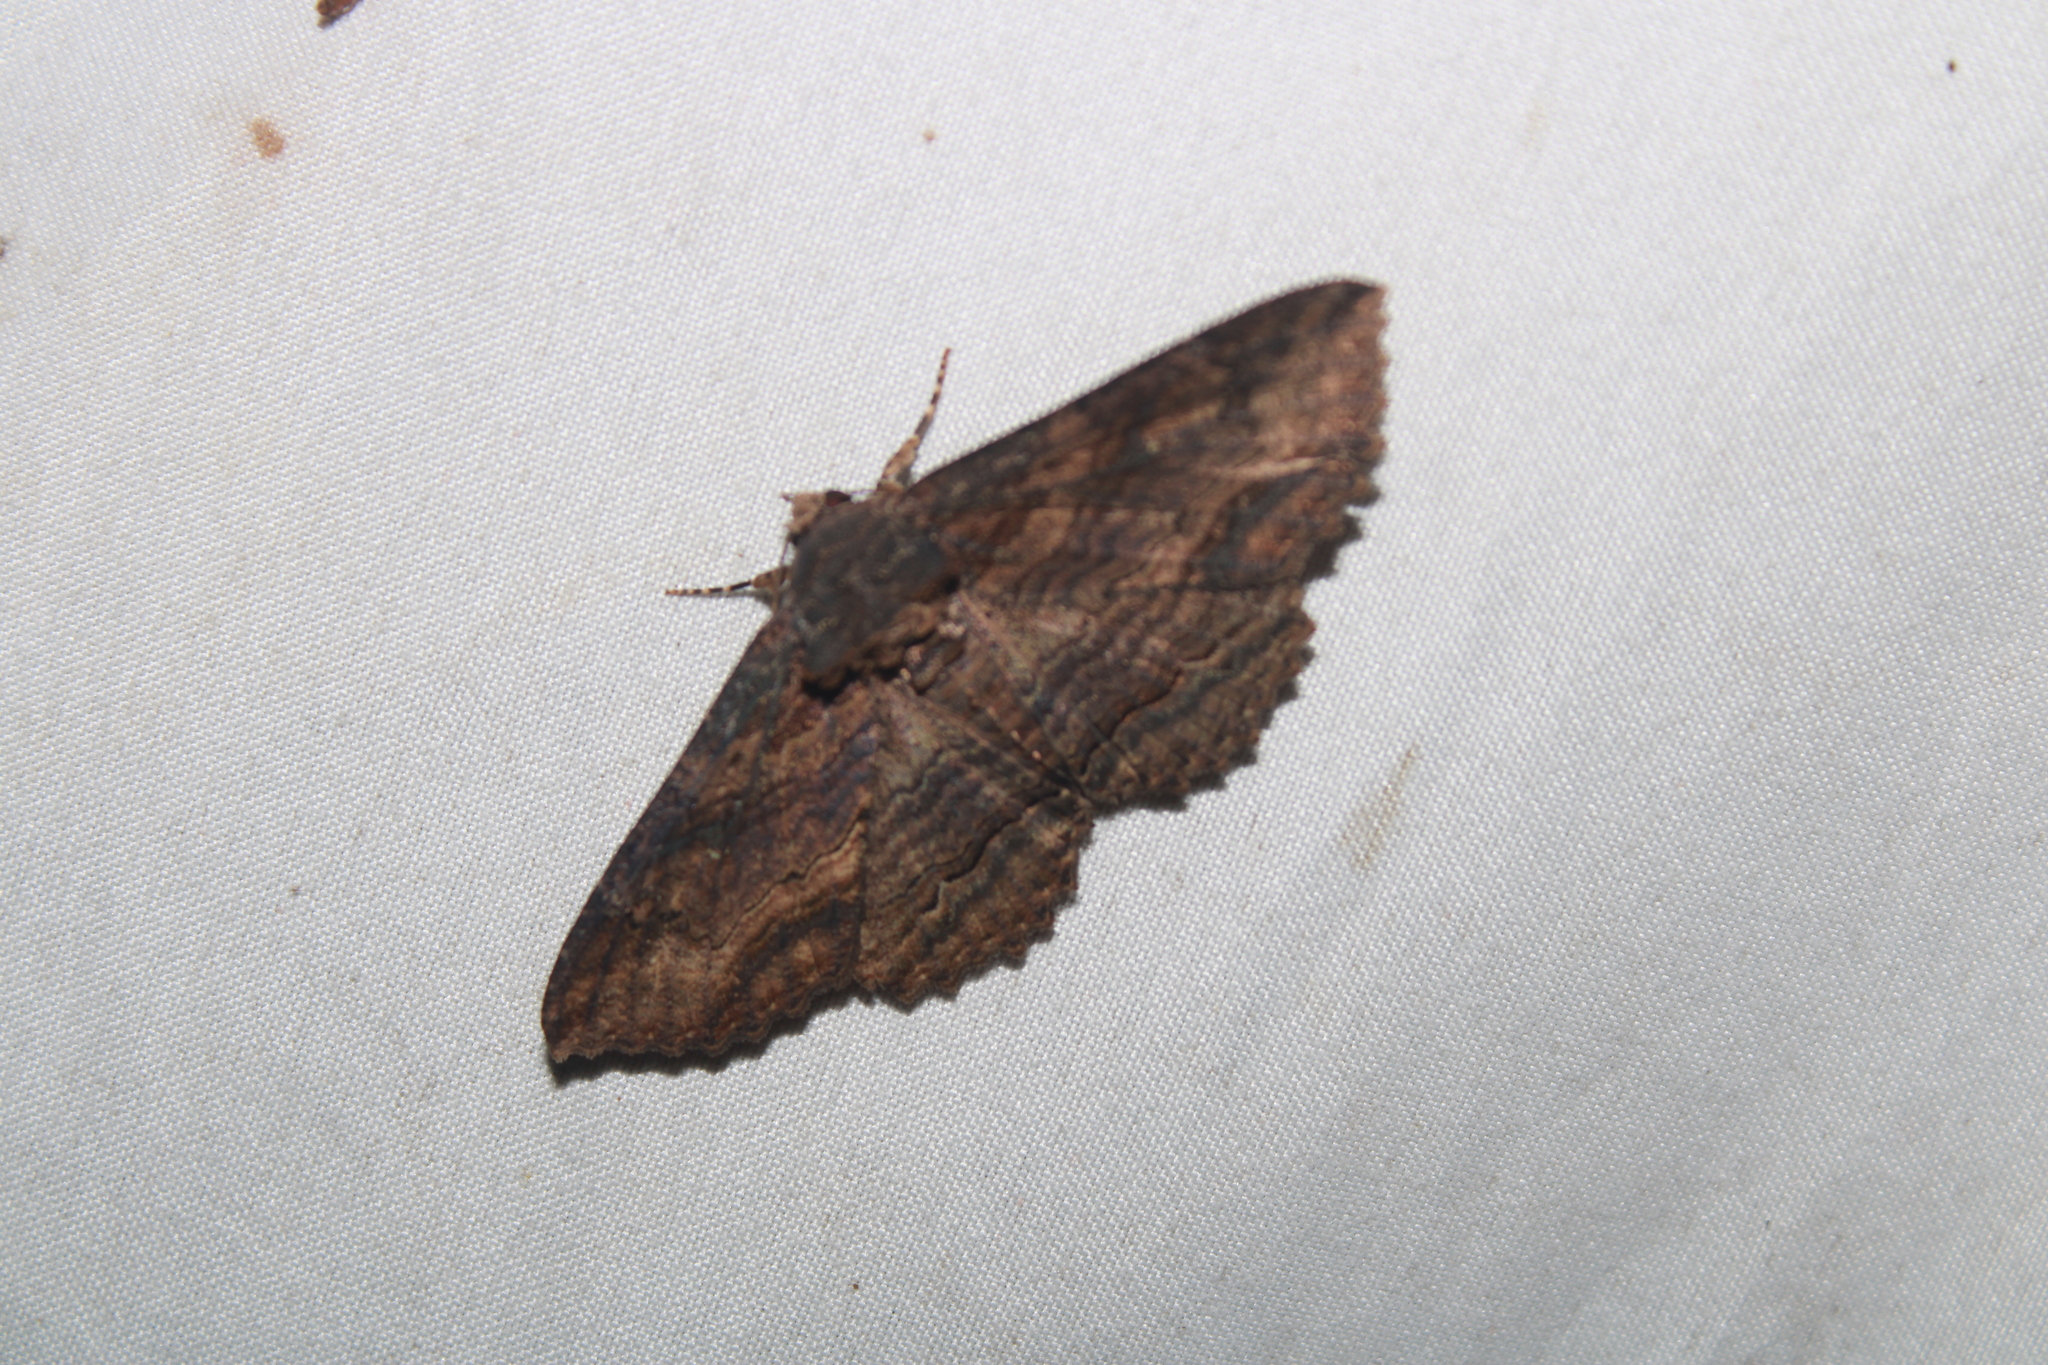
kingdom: Animalia
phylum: Arthropoda
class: Insecta
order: Lepidoptera
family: Erebidae
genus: Zale
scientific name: Zale lunata
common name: Lunate zale moth
